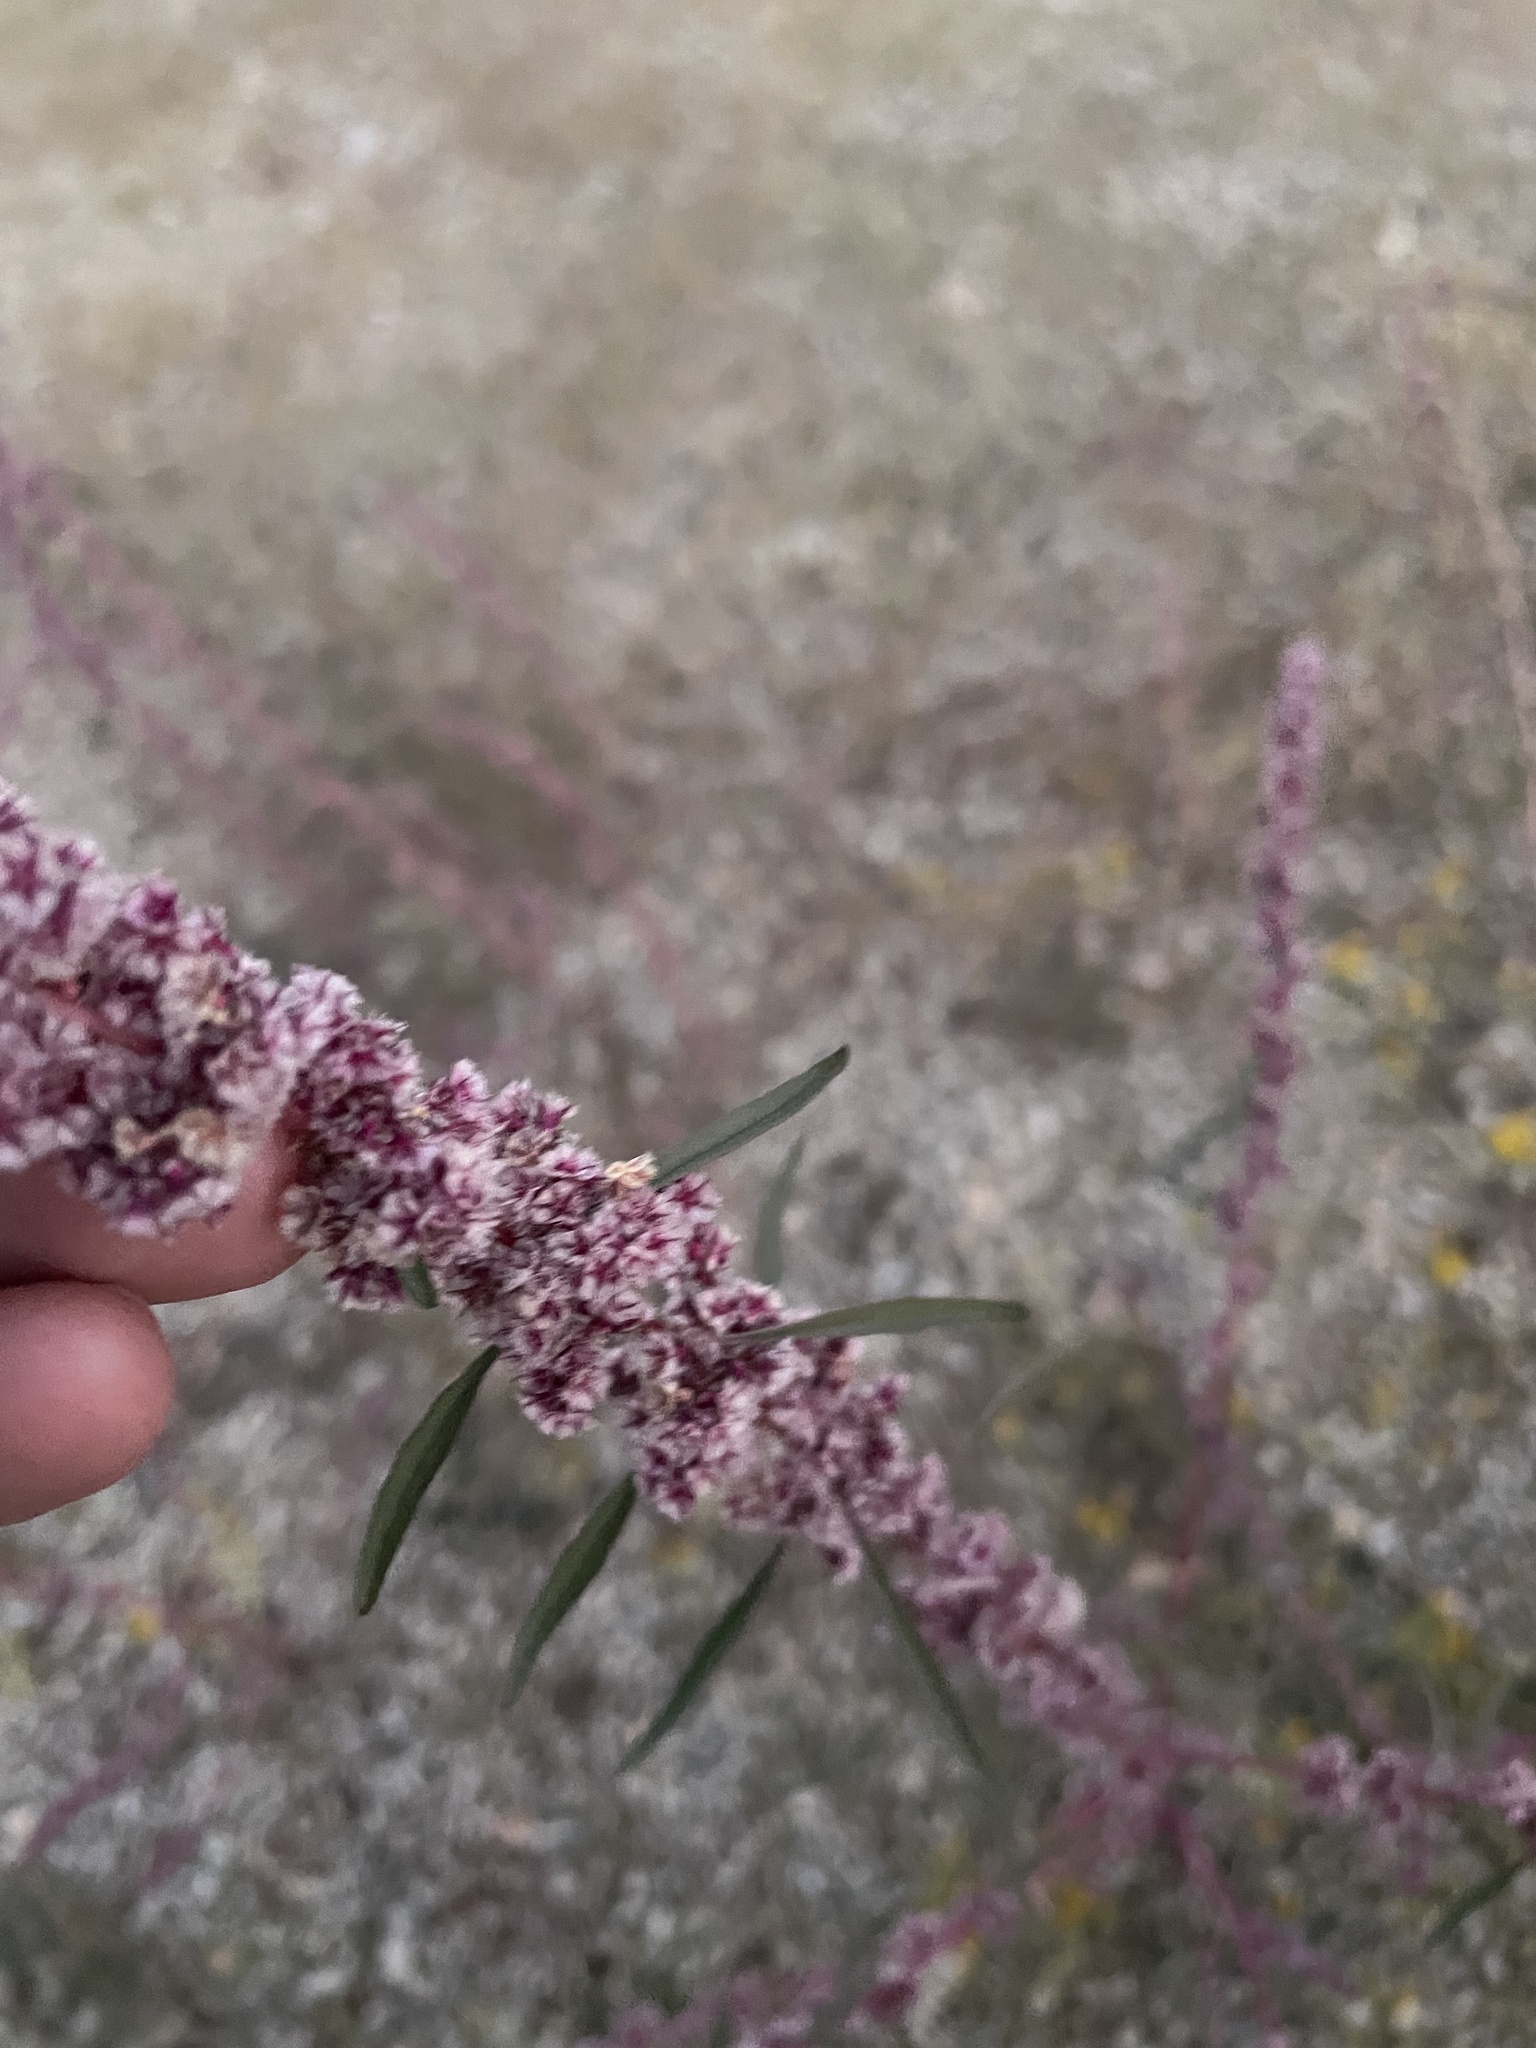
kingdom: Plantae
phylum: Tracheophyta
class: Magnoliopsida
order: Caryophyllales
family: Amaranthaceae
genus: Amaranthus
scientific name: Amaranthus fimbriatus
